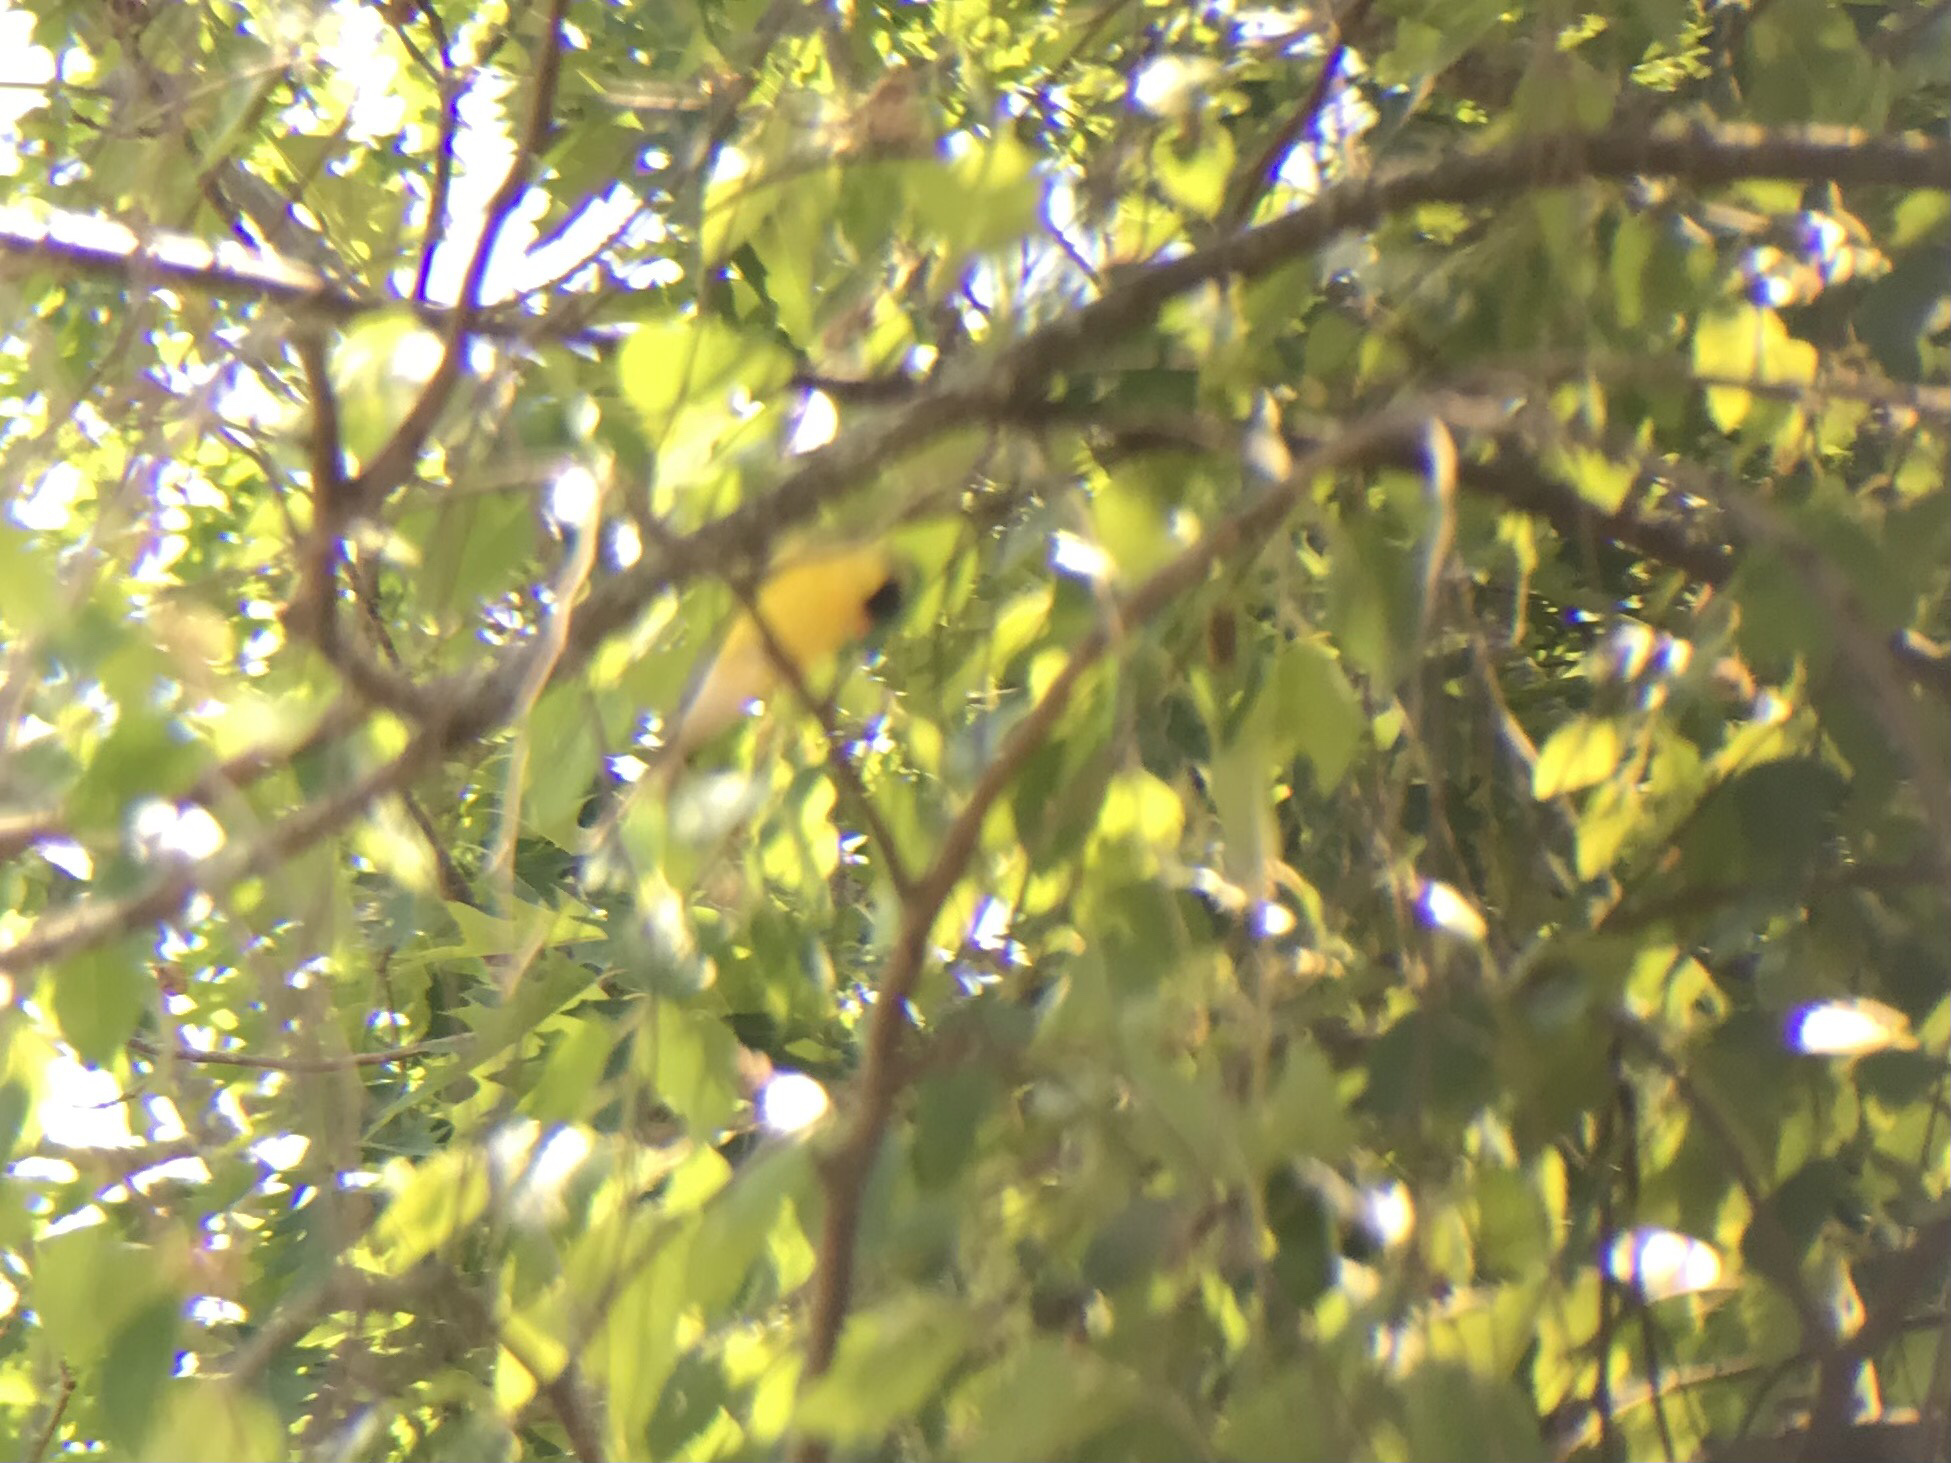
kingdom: Animalia
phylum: Chordata
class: Aves
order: Passeriformes
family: Fringillidae
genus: Spinus
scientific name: Spinus tristis
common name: American goldfinch
